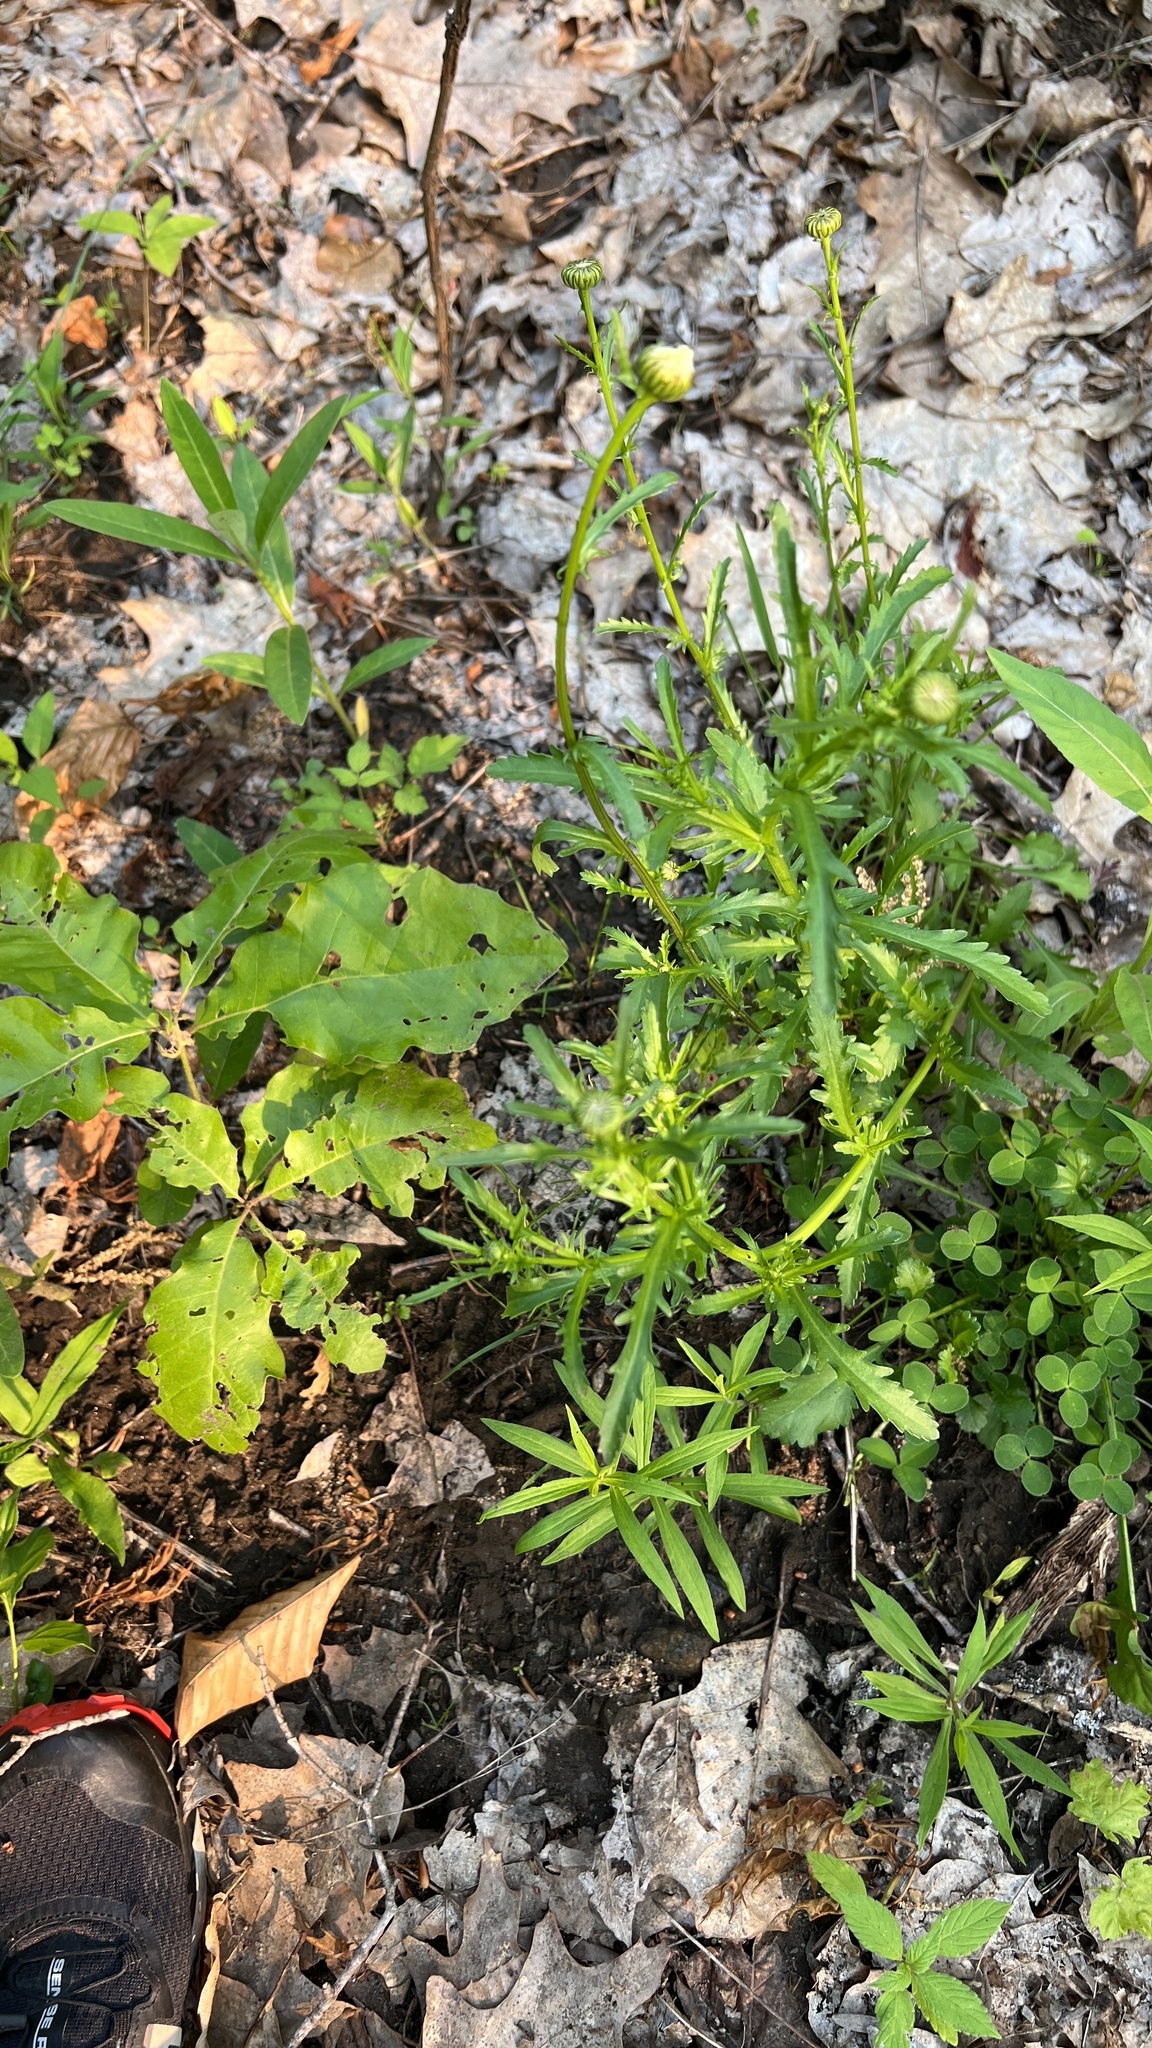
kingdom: Plantae
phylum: Tracheophyta
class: Magnoliopsida
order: Asterales
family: Asteraceae
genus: Leucanthemum
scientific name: Leucanthemum vulgare
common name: Oxeye daisy
